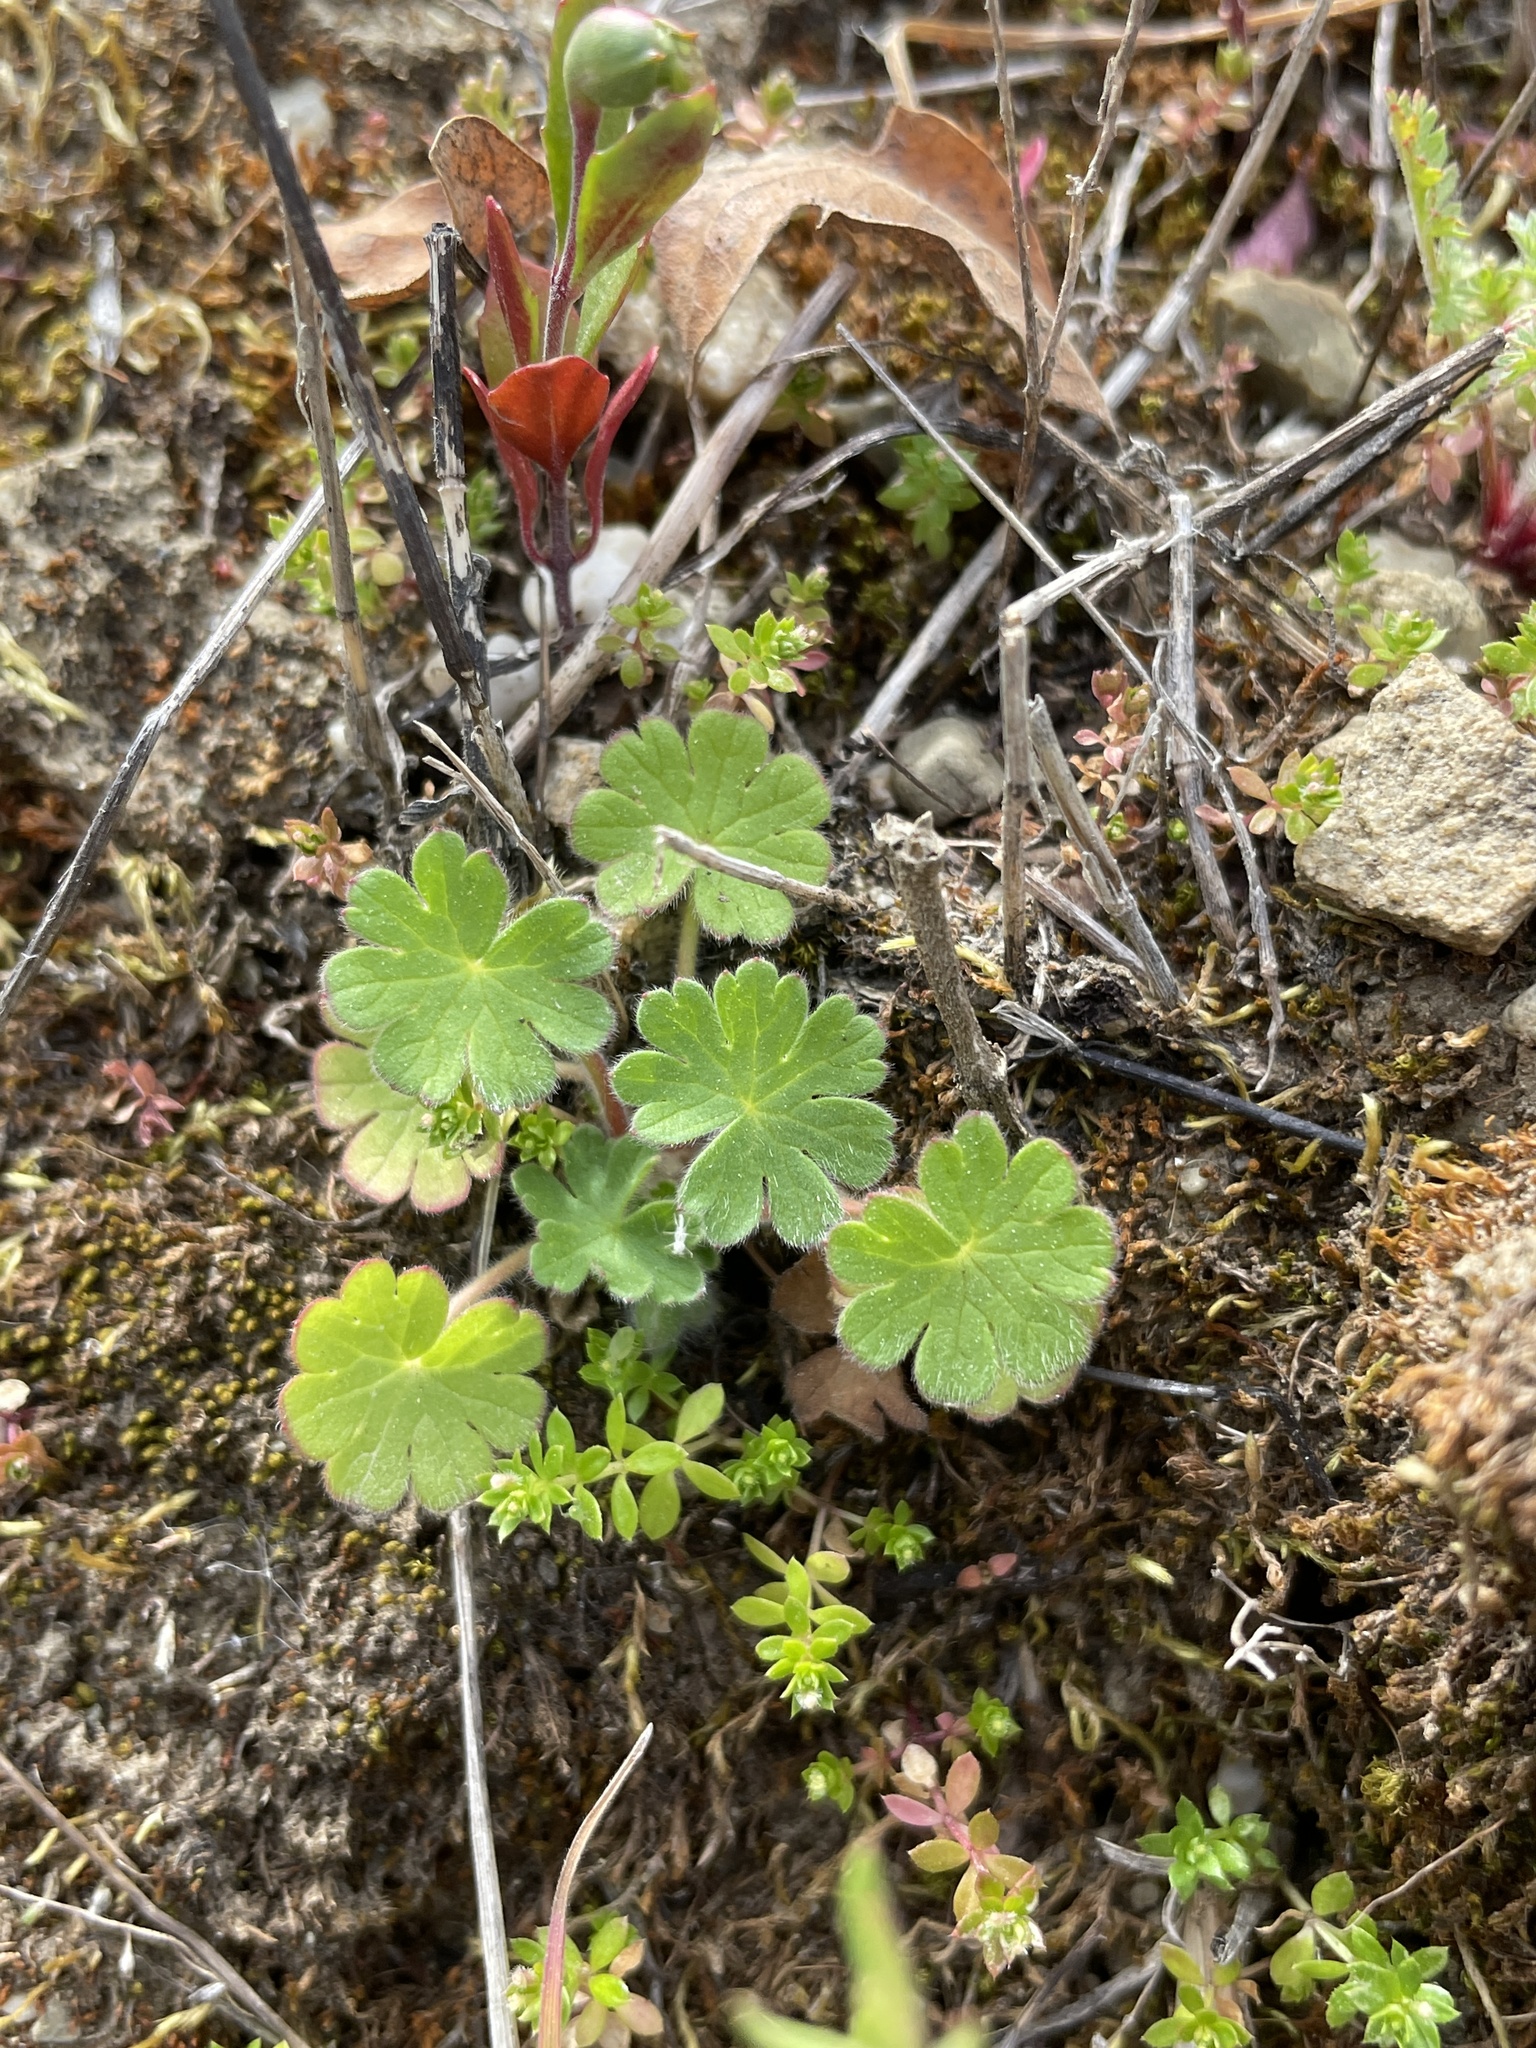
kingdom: Plantae
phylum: Tracheophyta
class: Magnoliopsida
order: Geraniales
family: Geraniaceae
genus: Geranium
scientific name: Geranium
